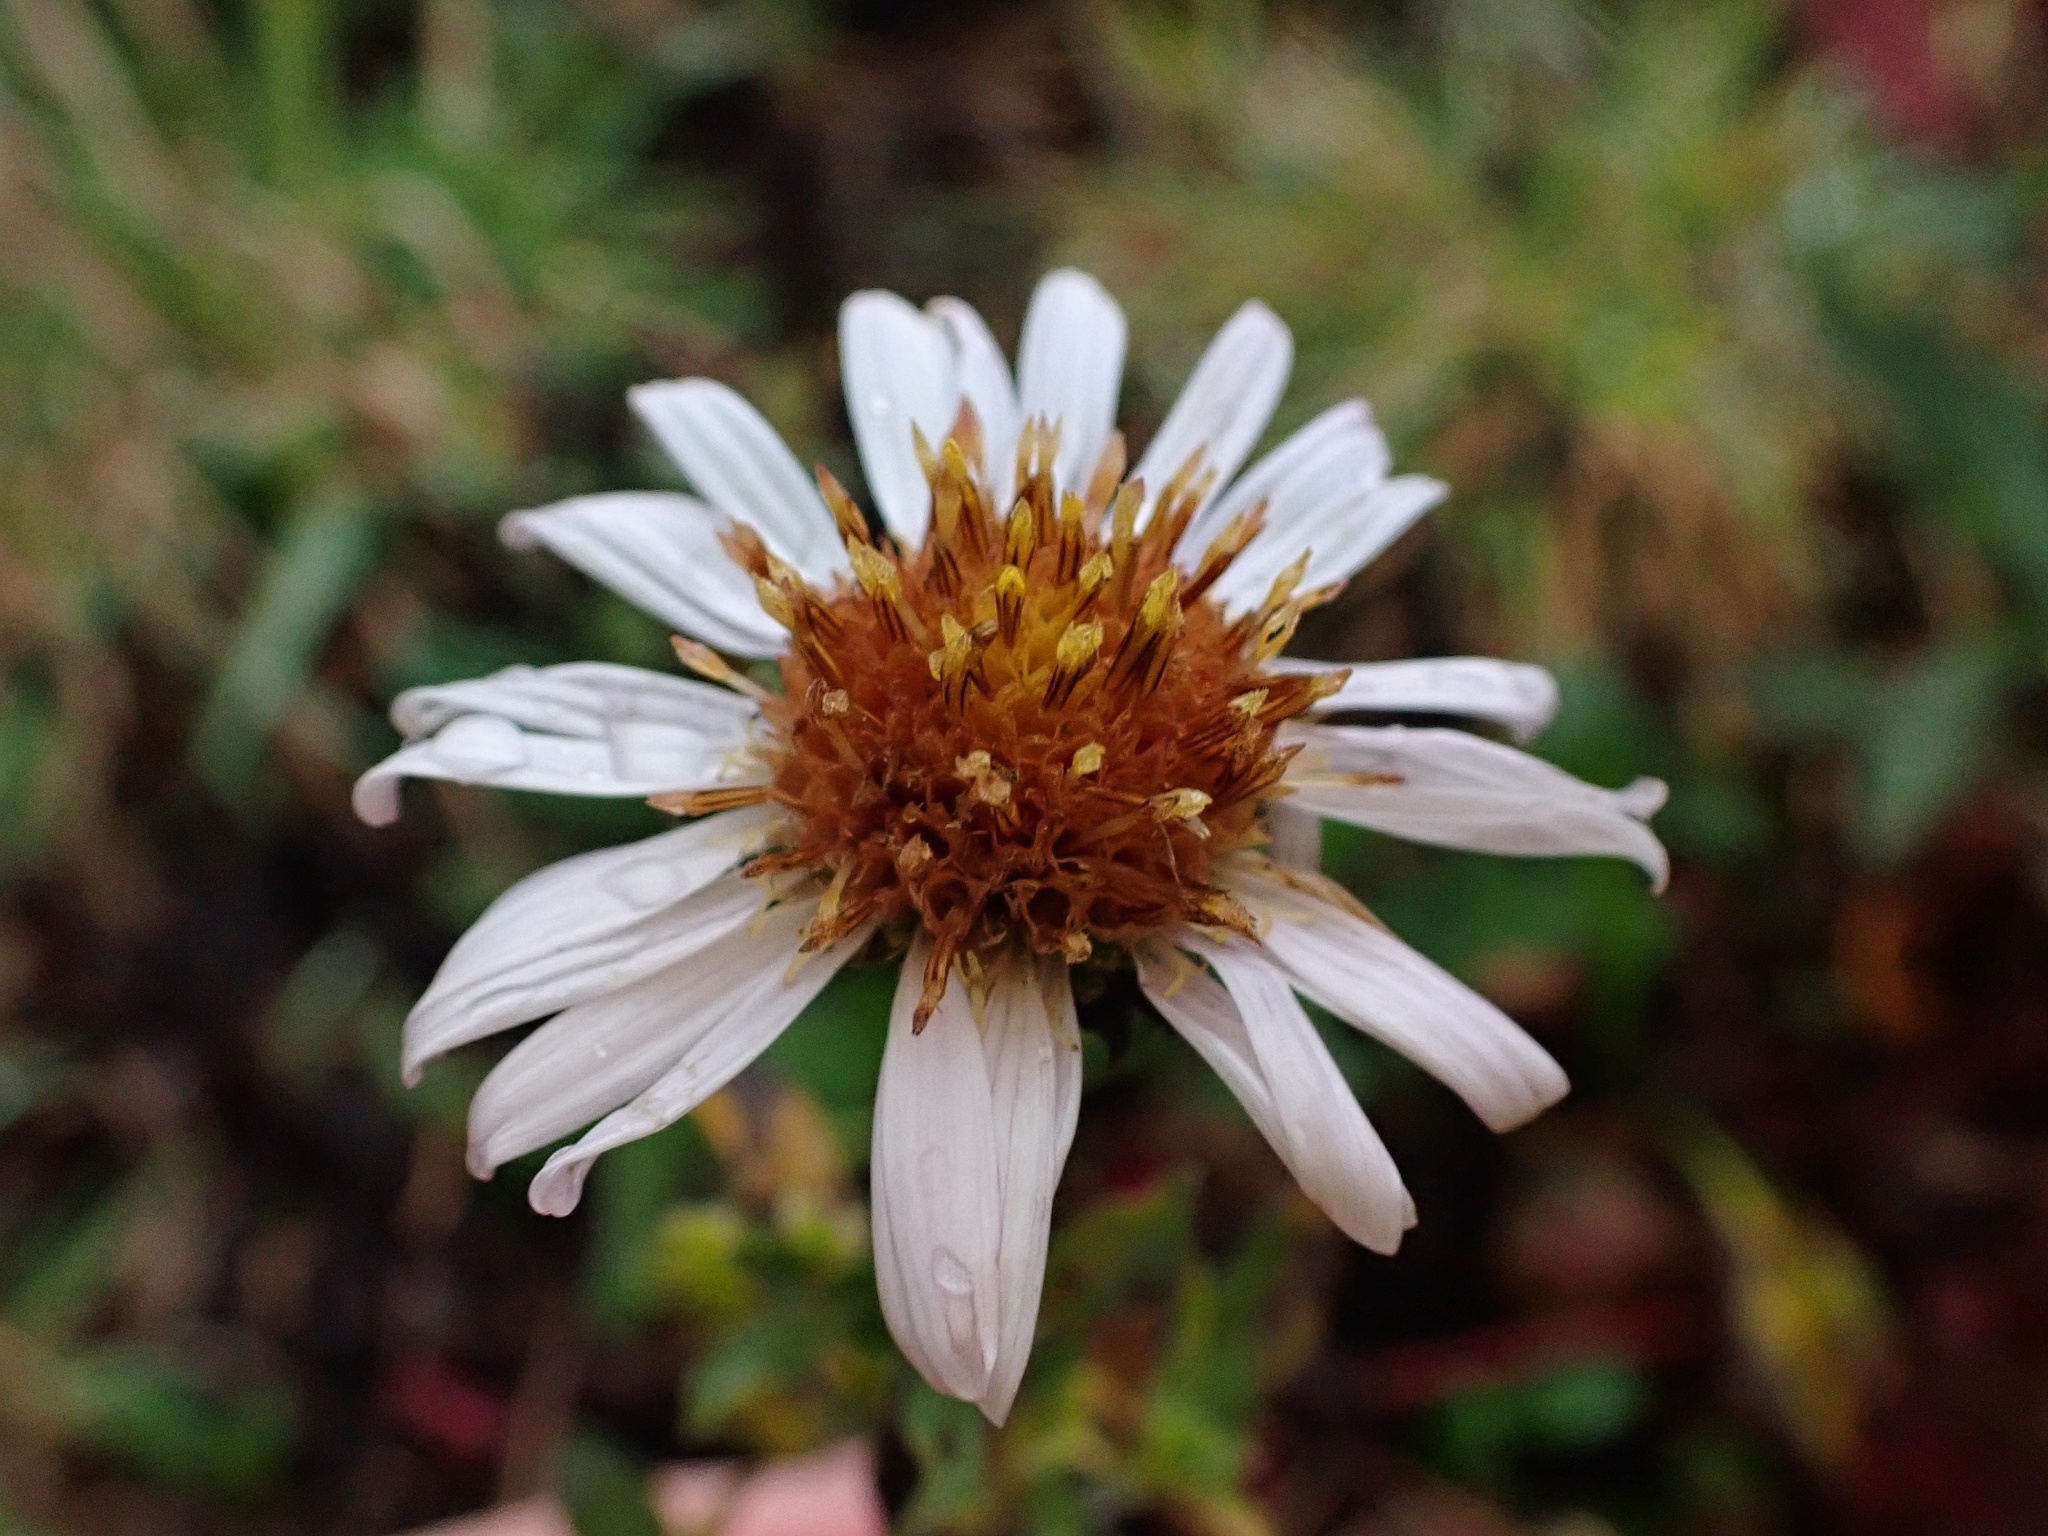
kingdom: Plantae
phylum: Tracheophyta
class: Magnoliopsida
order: Asterales
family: Asteraceae
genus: Symphyotrichum
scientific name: Symphyotrichum chilense
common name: Pacific aster
